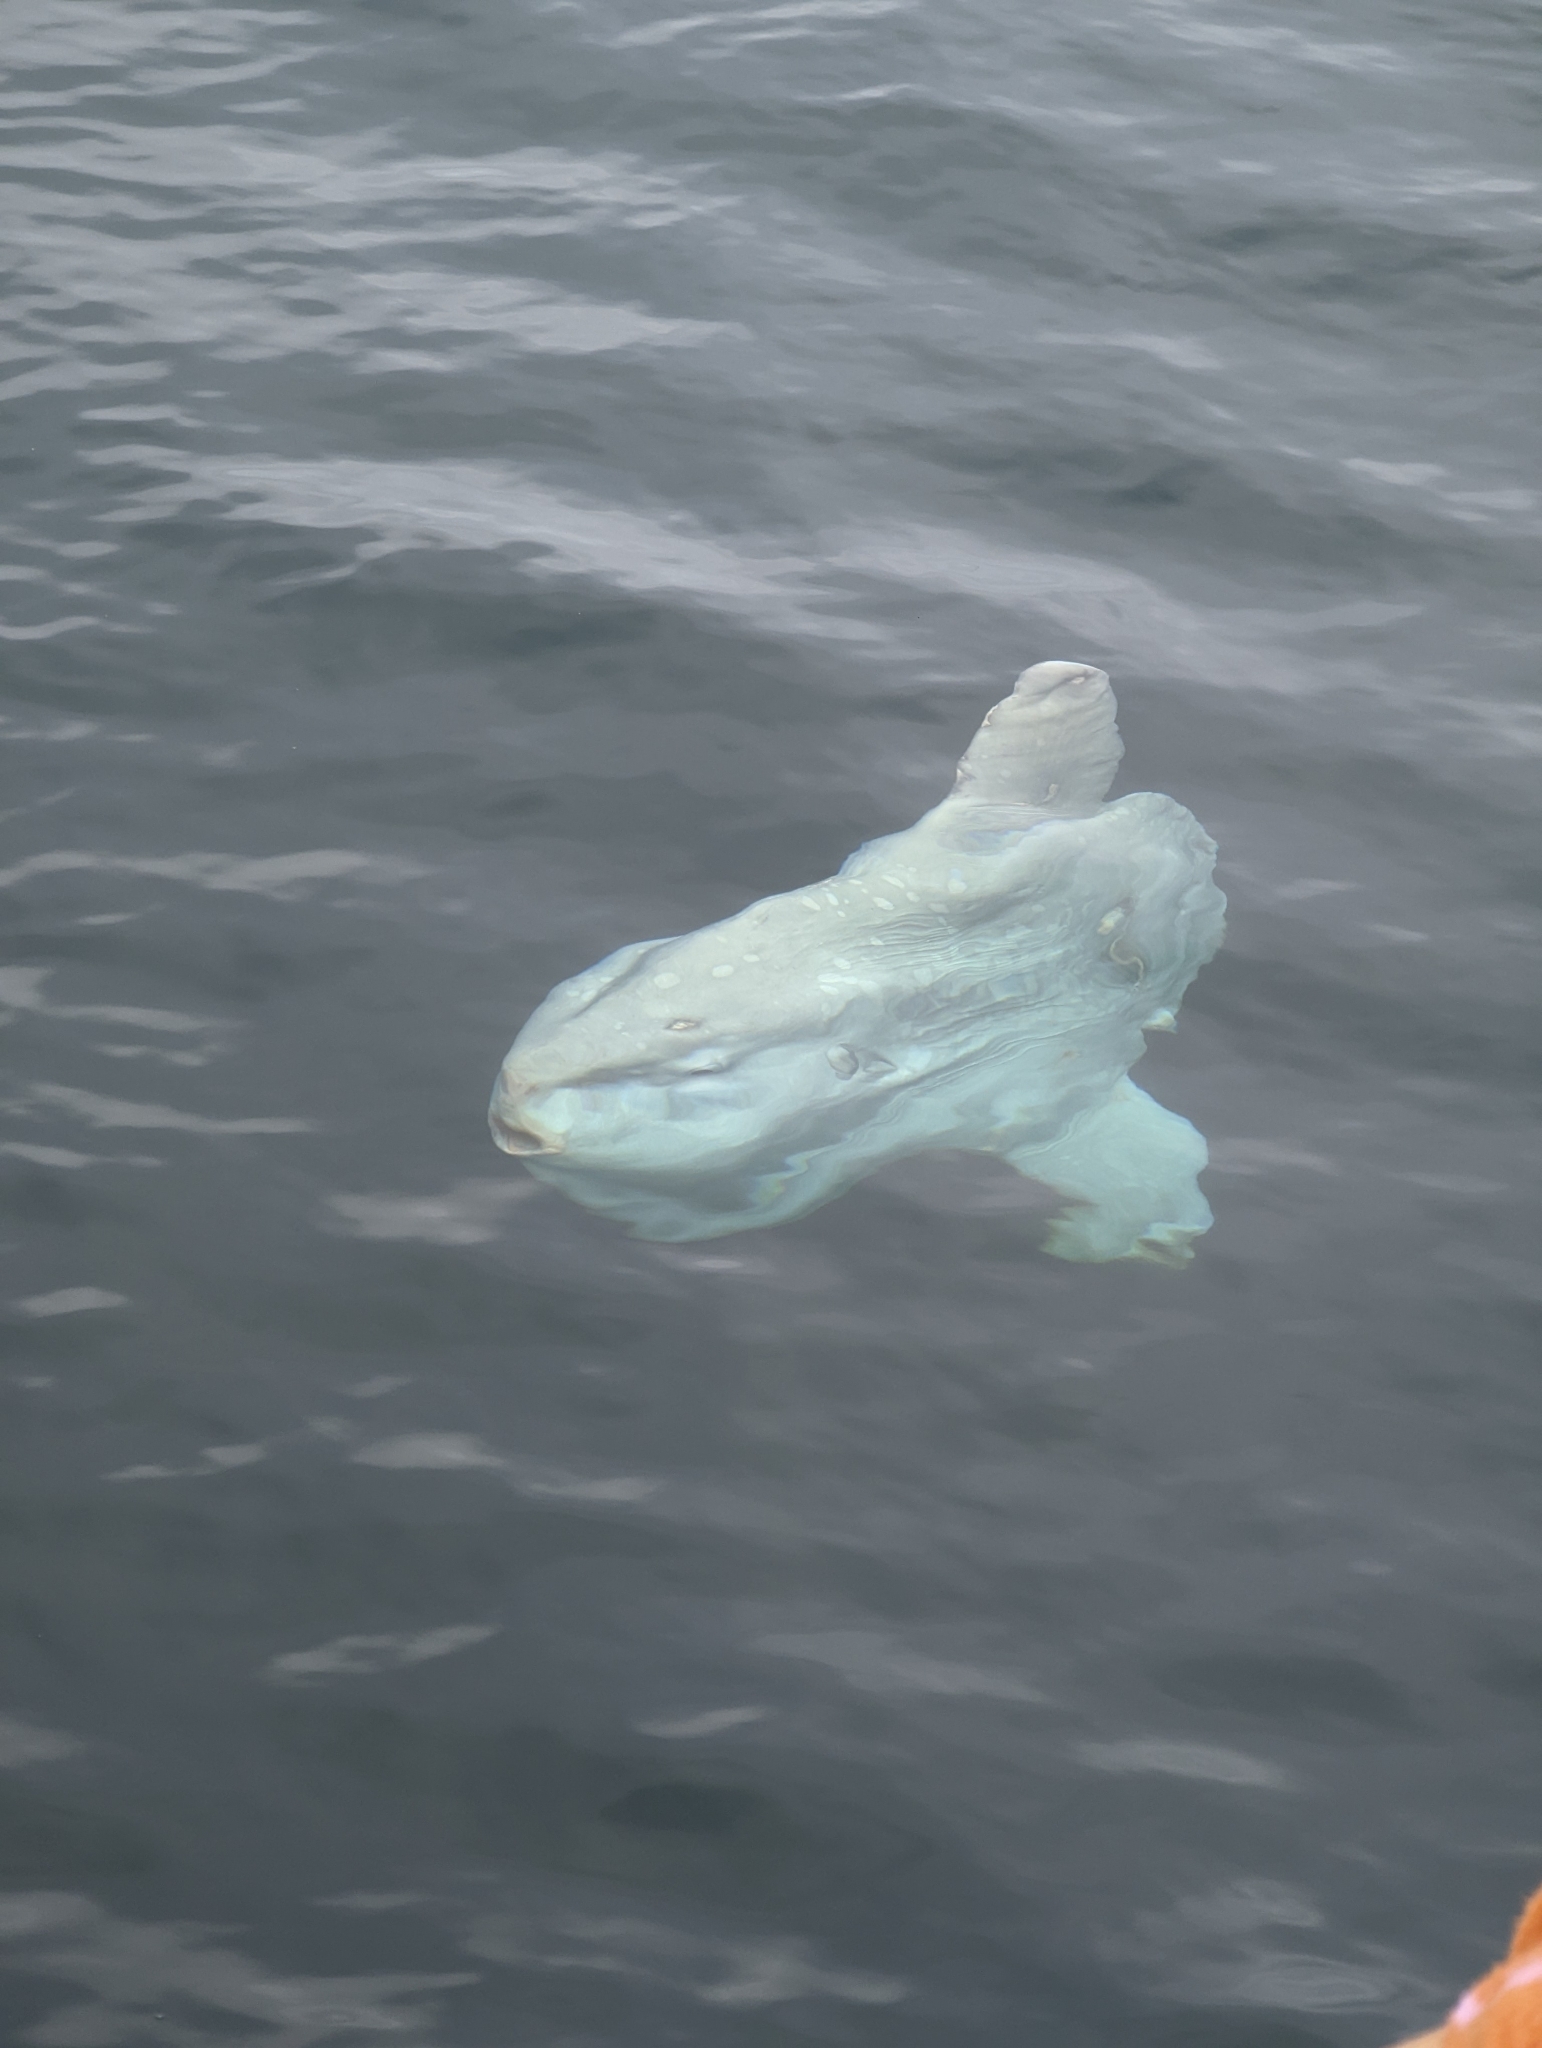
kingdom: Animalia
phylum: Chordata
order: Tetraodontiformes
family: Molidae
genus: Mola
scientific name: Mola mola
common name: Ocean sunfish
